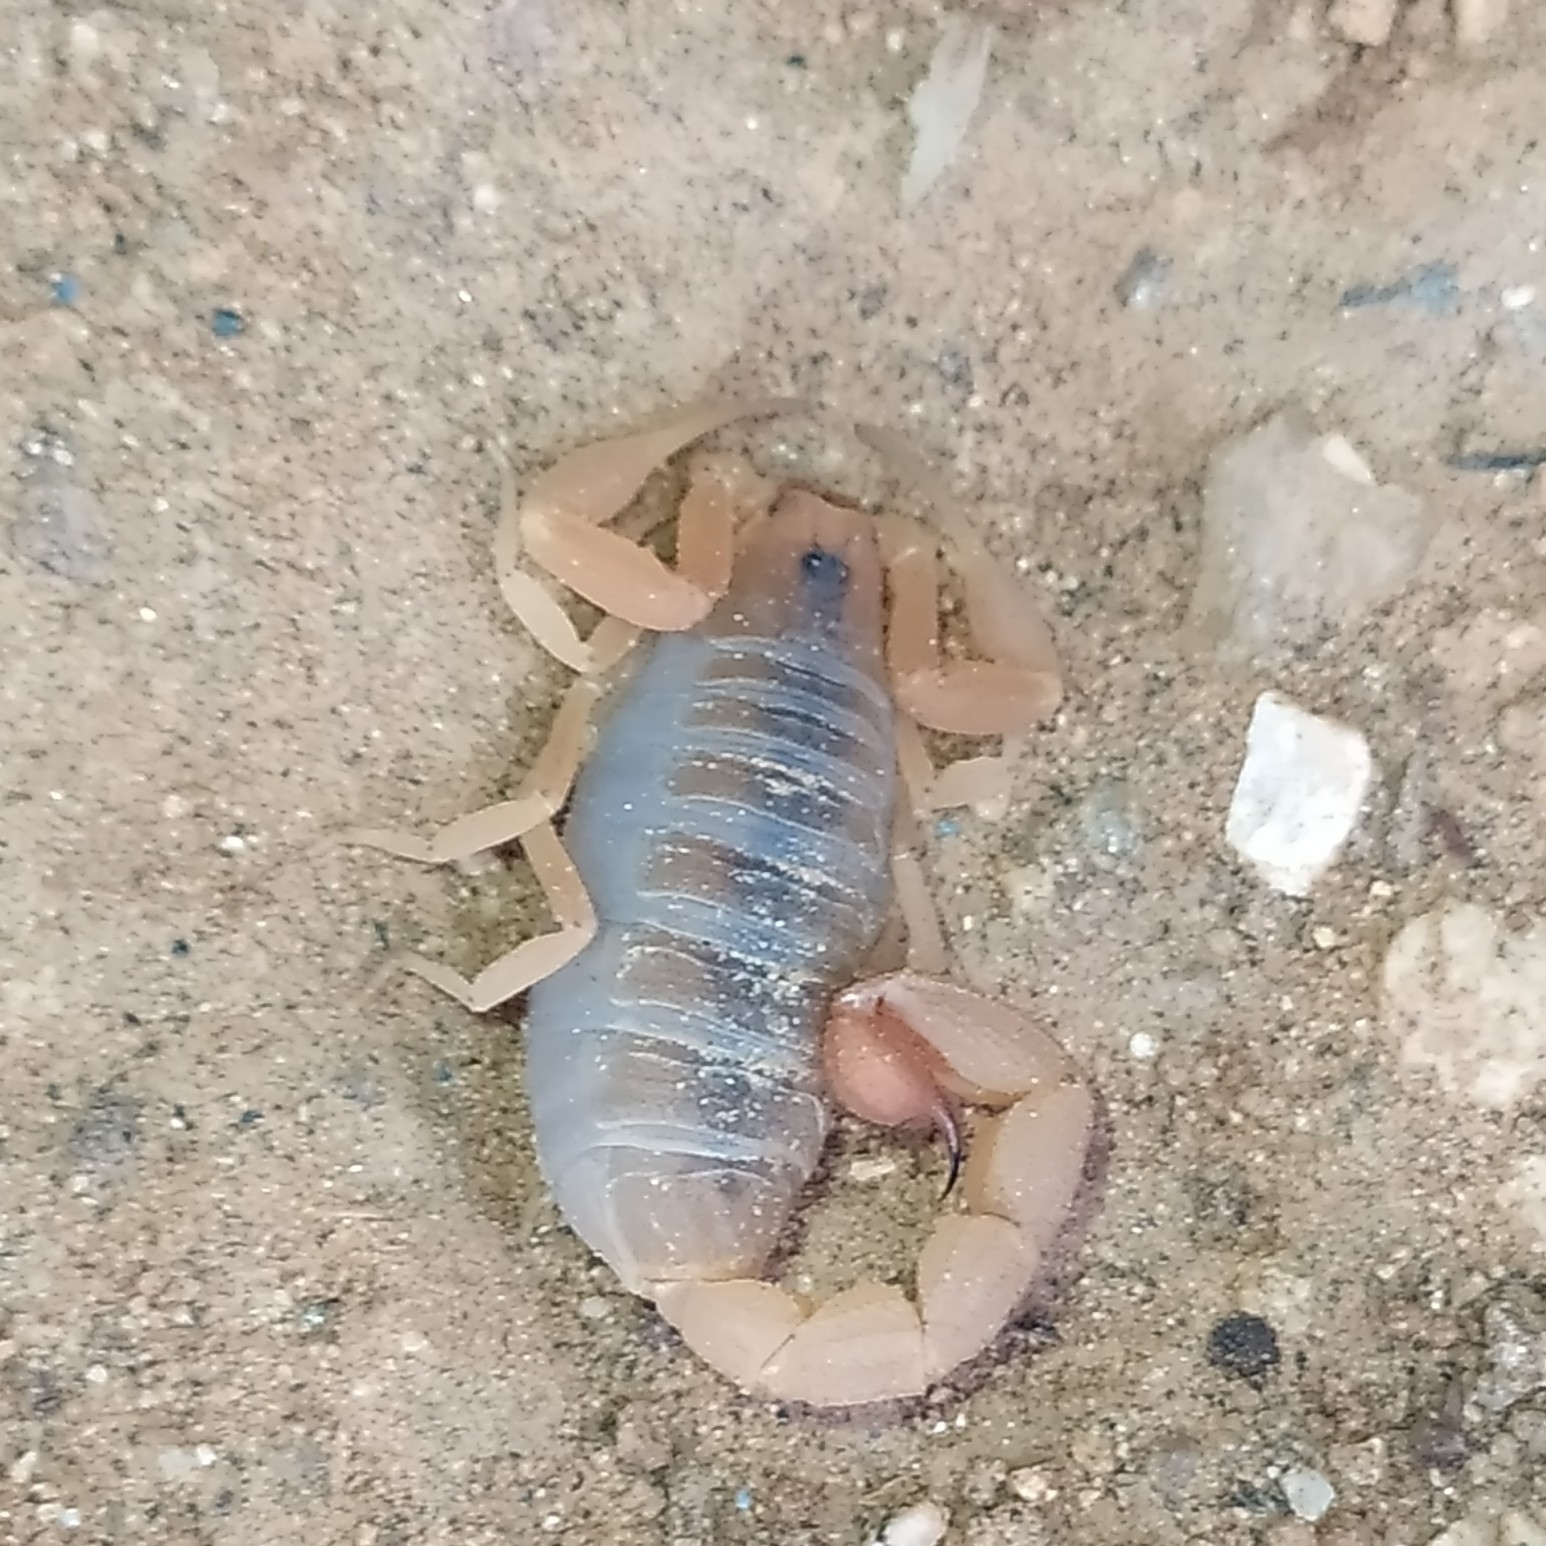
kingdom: Animalia
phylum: Arthropoda
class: Arachnida
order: Scorpiones
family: Buthidae
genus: Hottentotta
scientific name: Hottentotta rugiscutis
